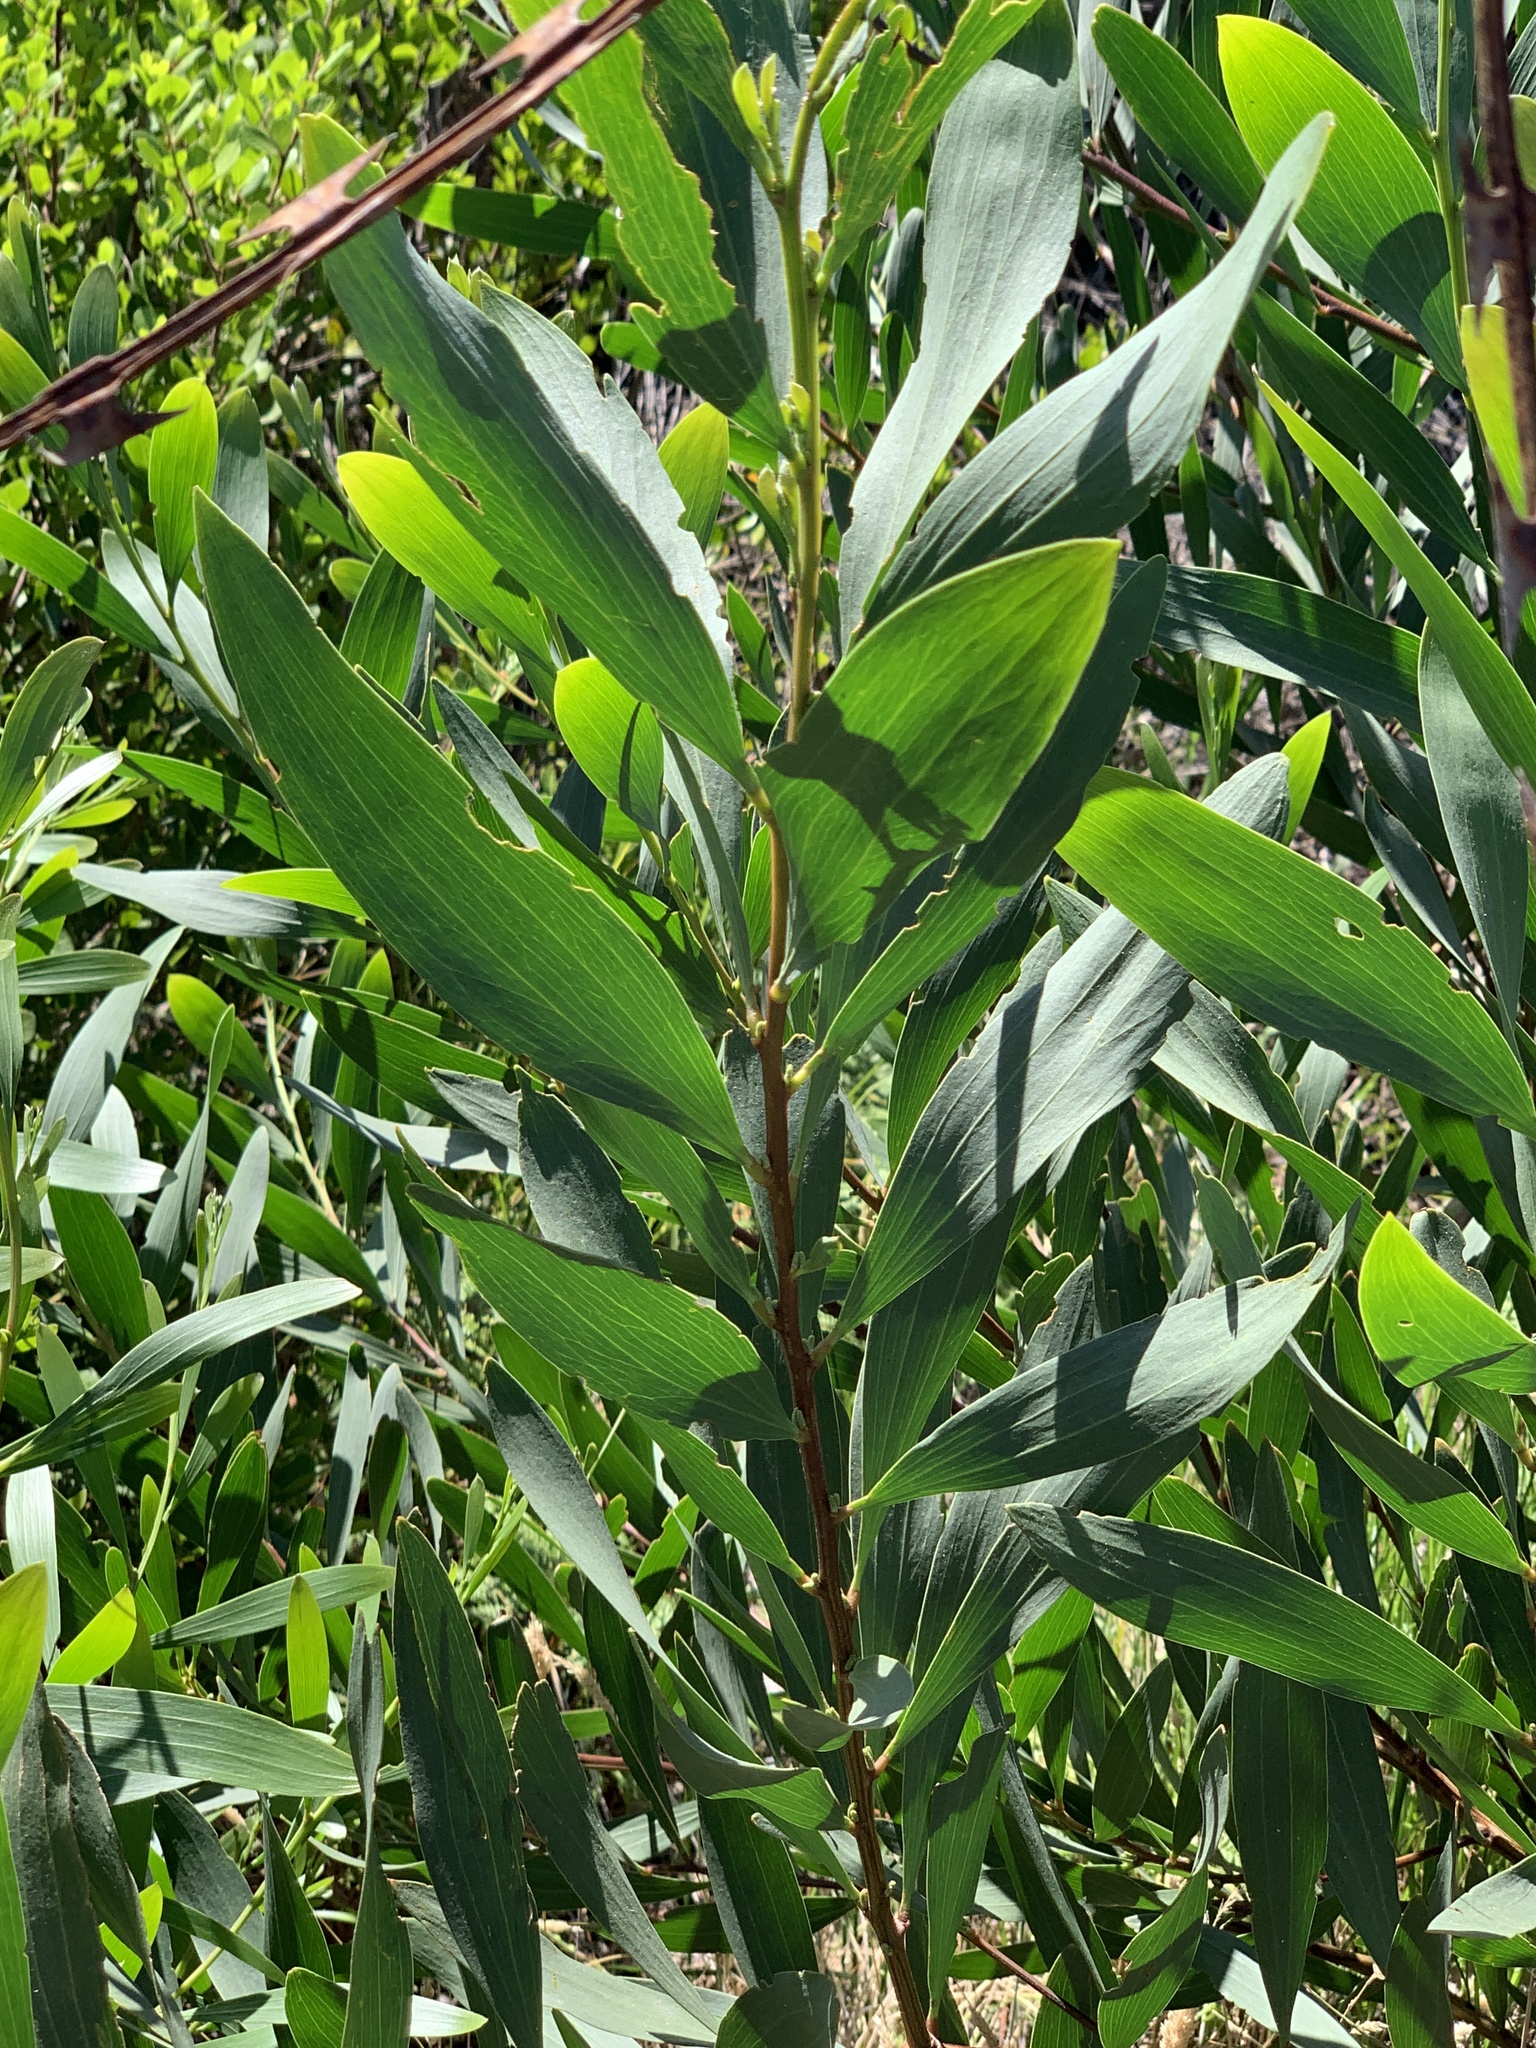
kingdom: Plantae
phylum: Tracheophyta
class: Magnoliopsida
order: Fabales
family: Fabaceae
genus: Acacia
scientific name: Acacia longifolia
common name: Sydney golden wattle
